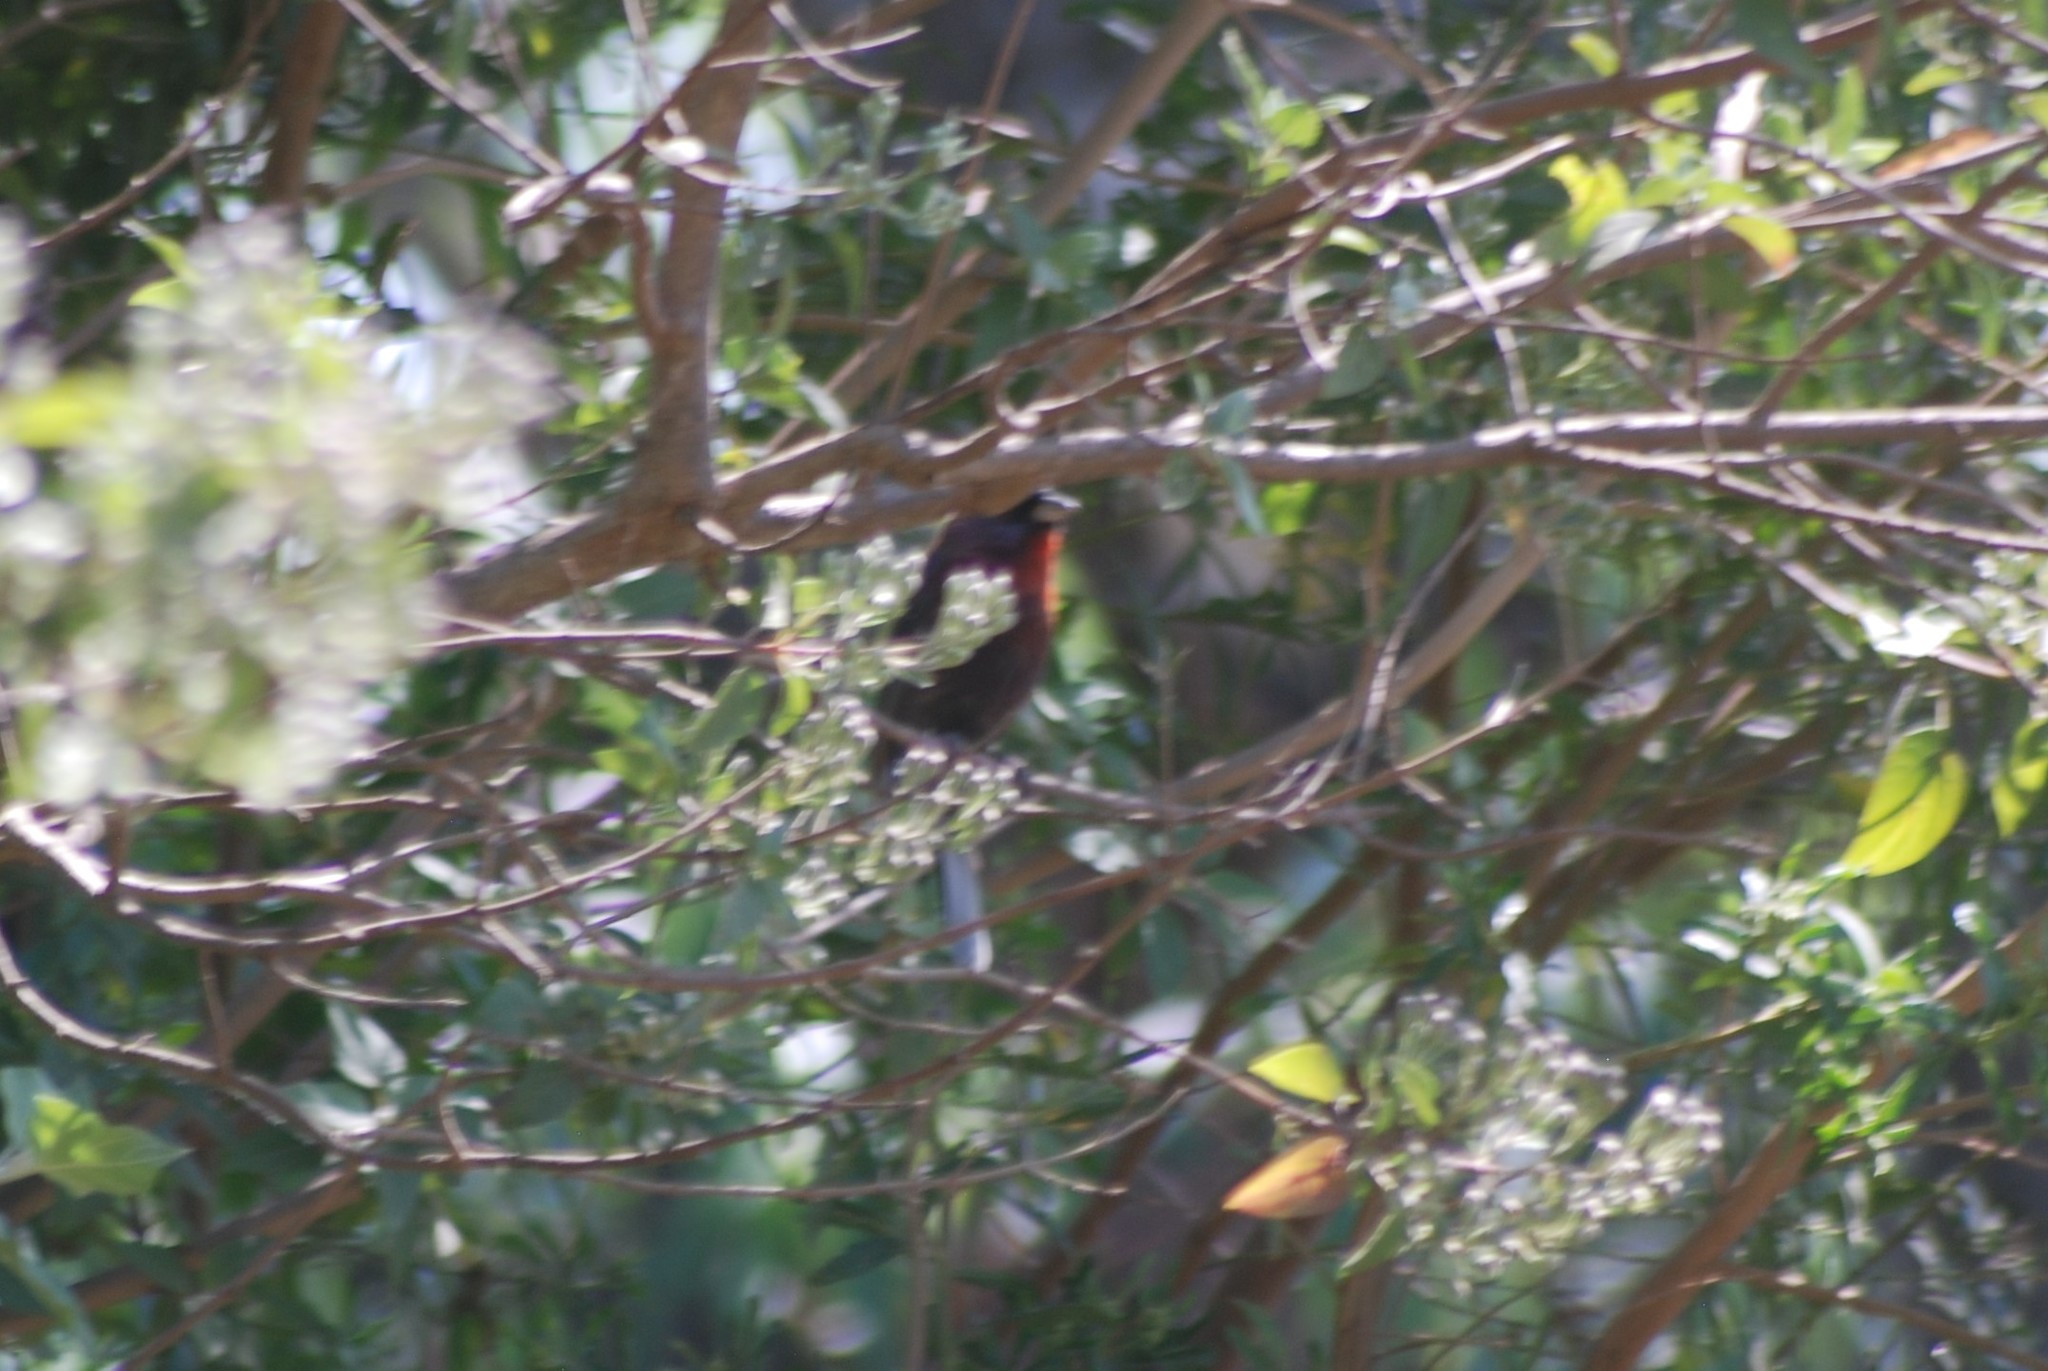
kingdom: Animalia
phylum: Chordata
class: Aves
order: Passeriformes
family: Cardinalidae
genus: Passerina
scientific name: Passerina versicolor
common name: Varied bunting
